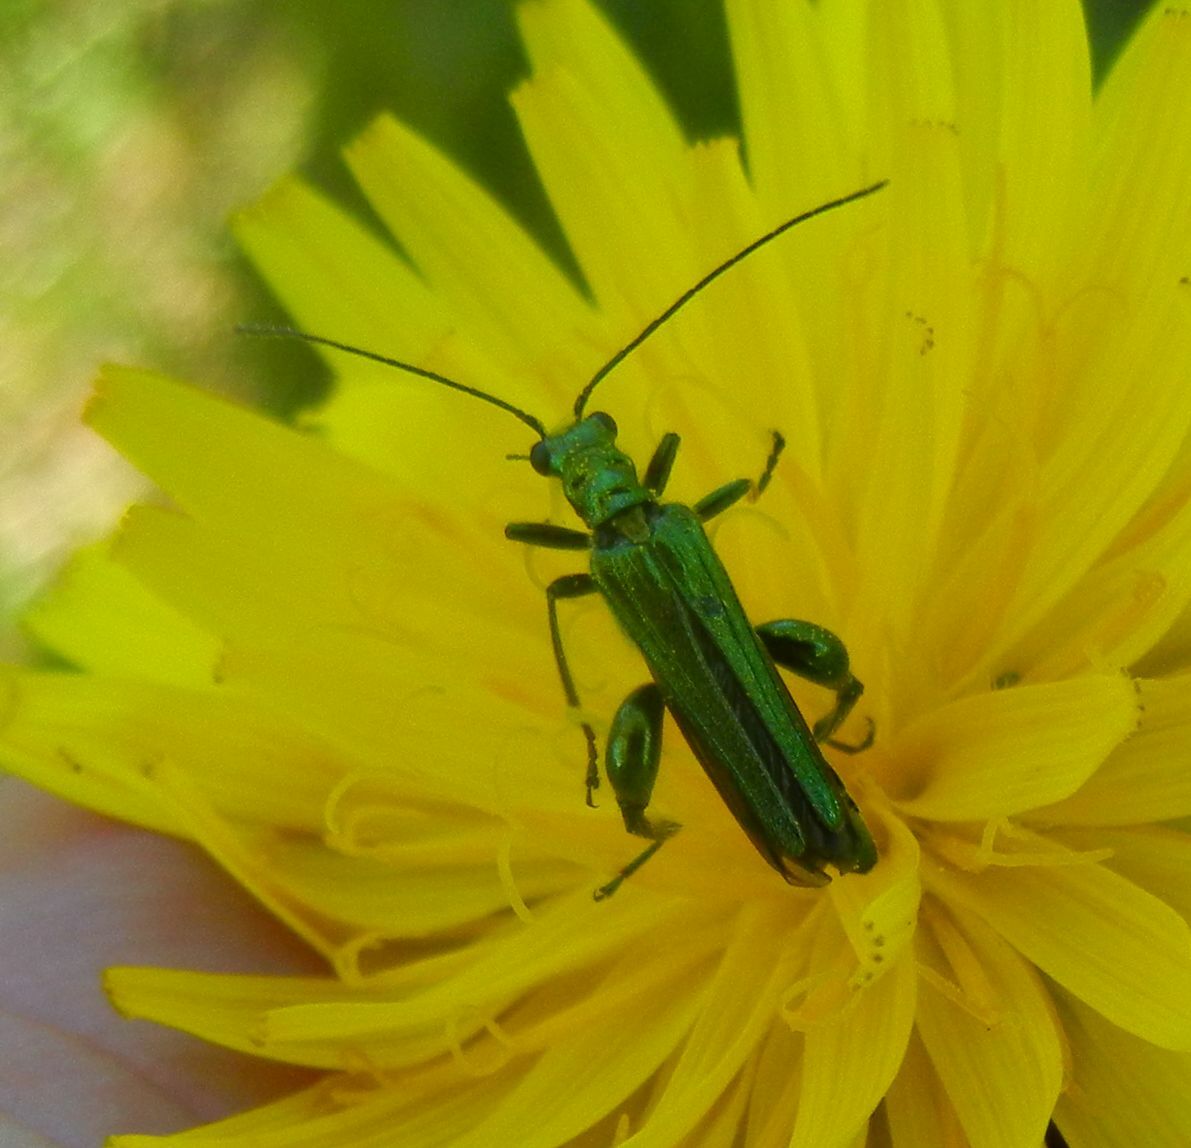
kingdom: Animalia
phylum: Arthropoda
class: Insecta
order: Coleoptera
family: Oedemeridae
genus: Oedemera
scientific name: Oedemera nobilis
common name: Swollen-thighed beetle
